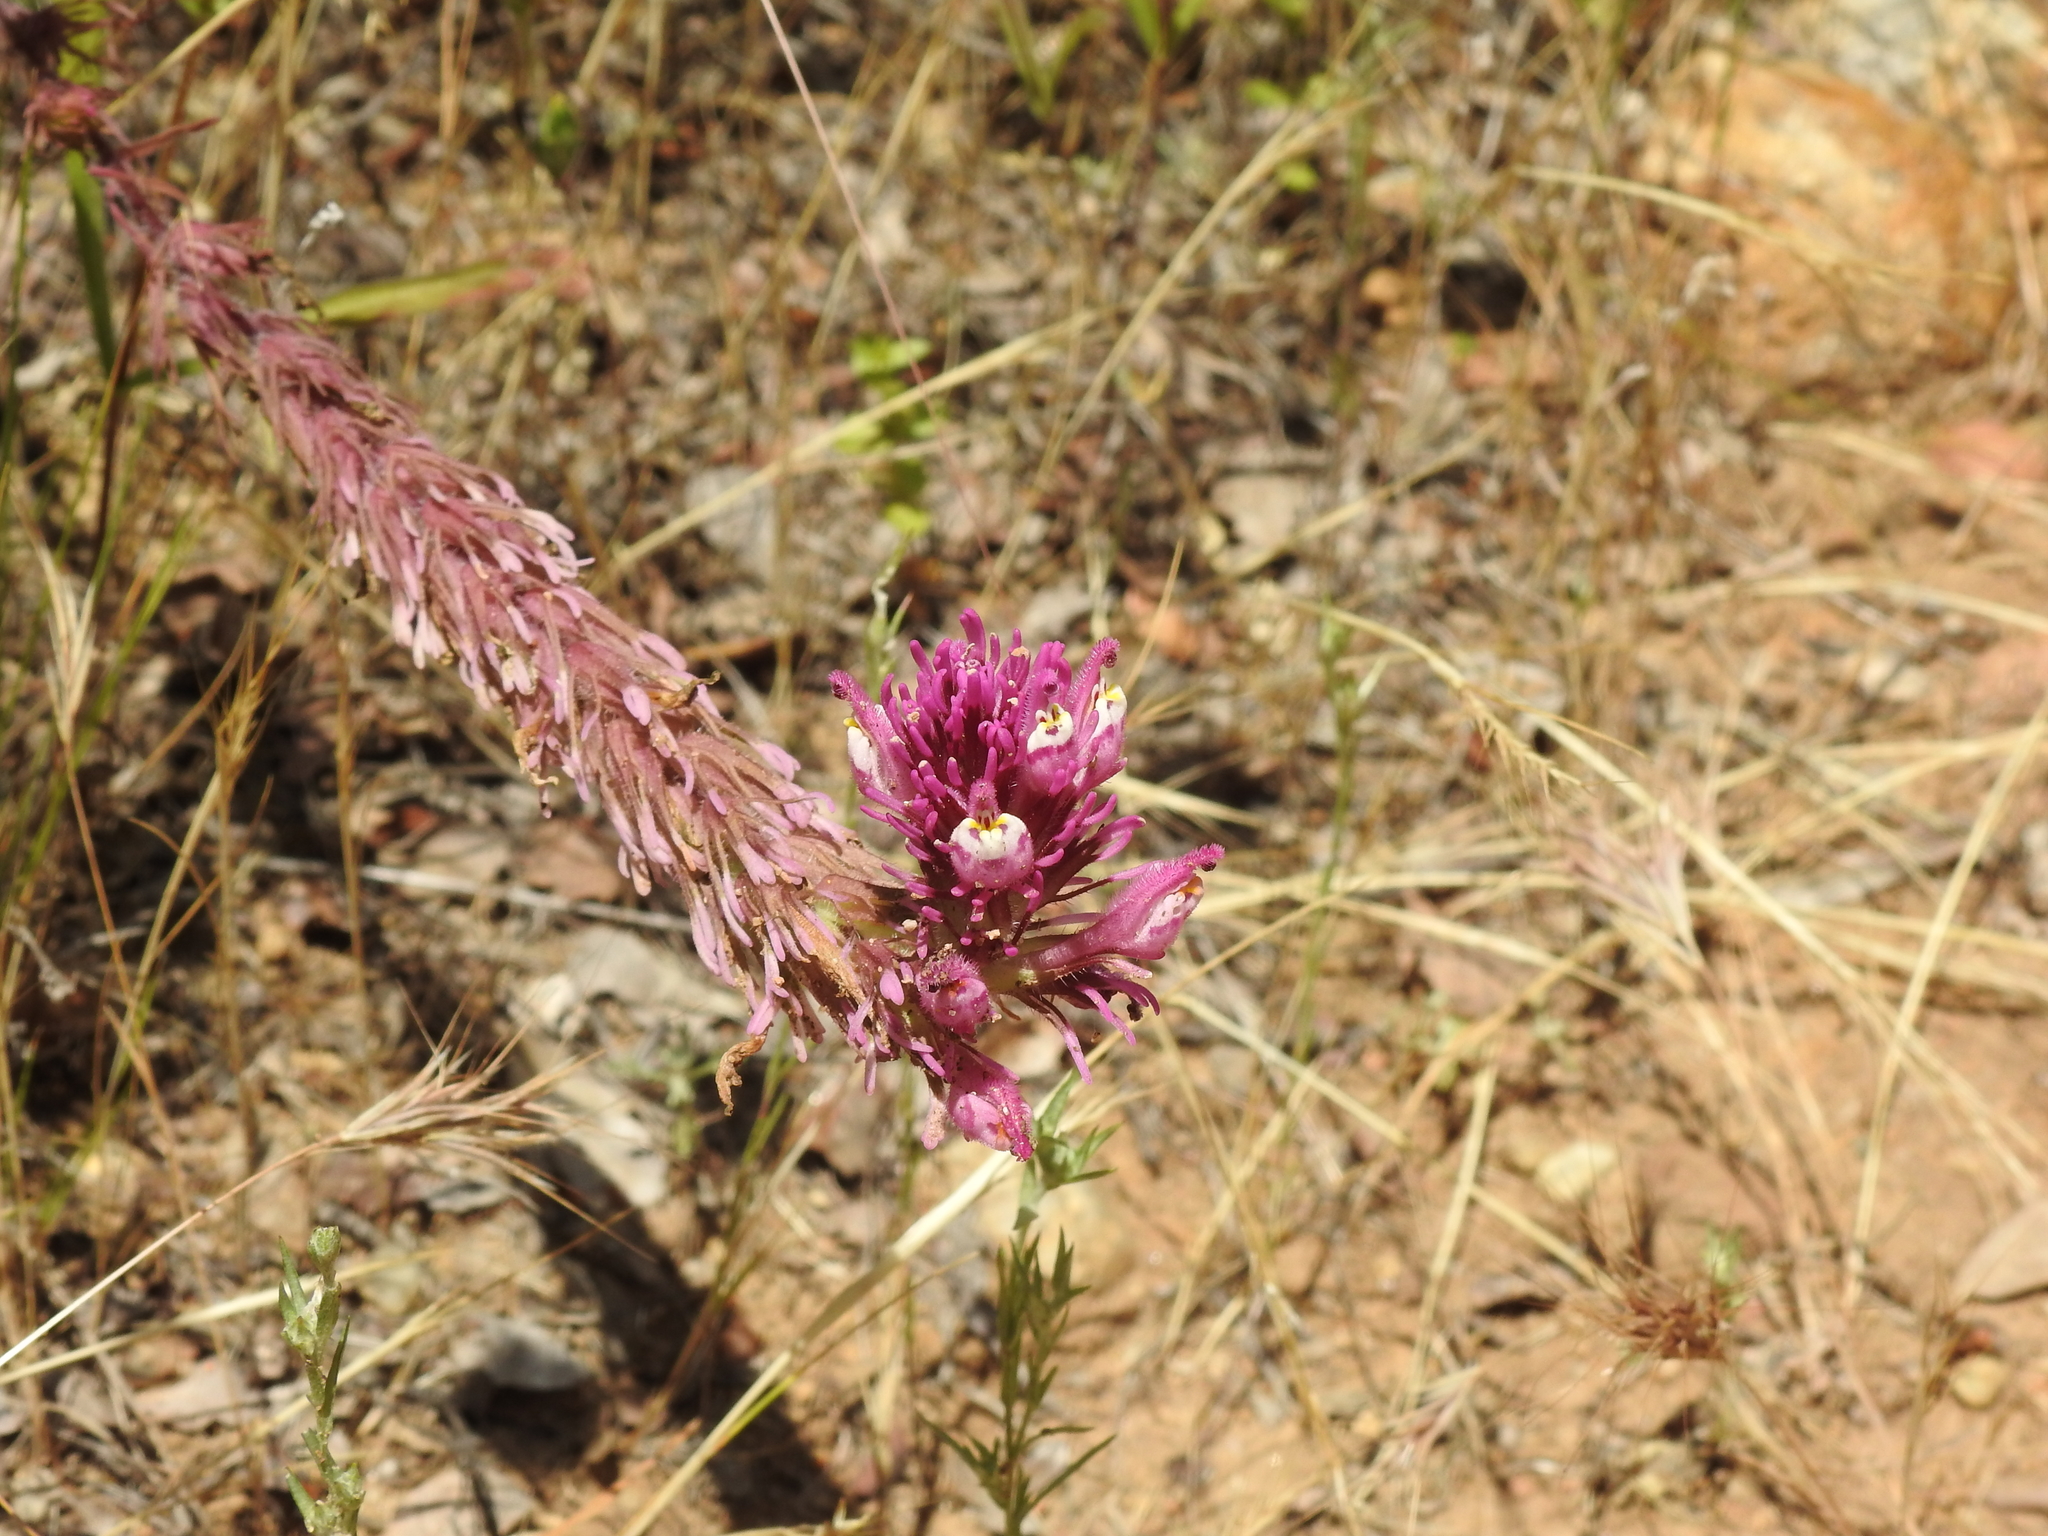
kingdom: Plantae
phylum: Tracheophyta
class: Magnoliopsida
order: Lamiales
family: Orobanchaceae
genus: Castilleja
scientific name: Castilleja exserta
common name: Purple owl-clover
